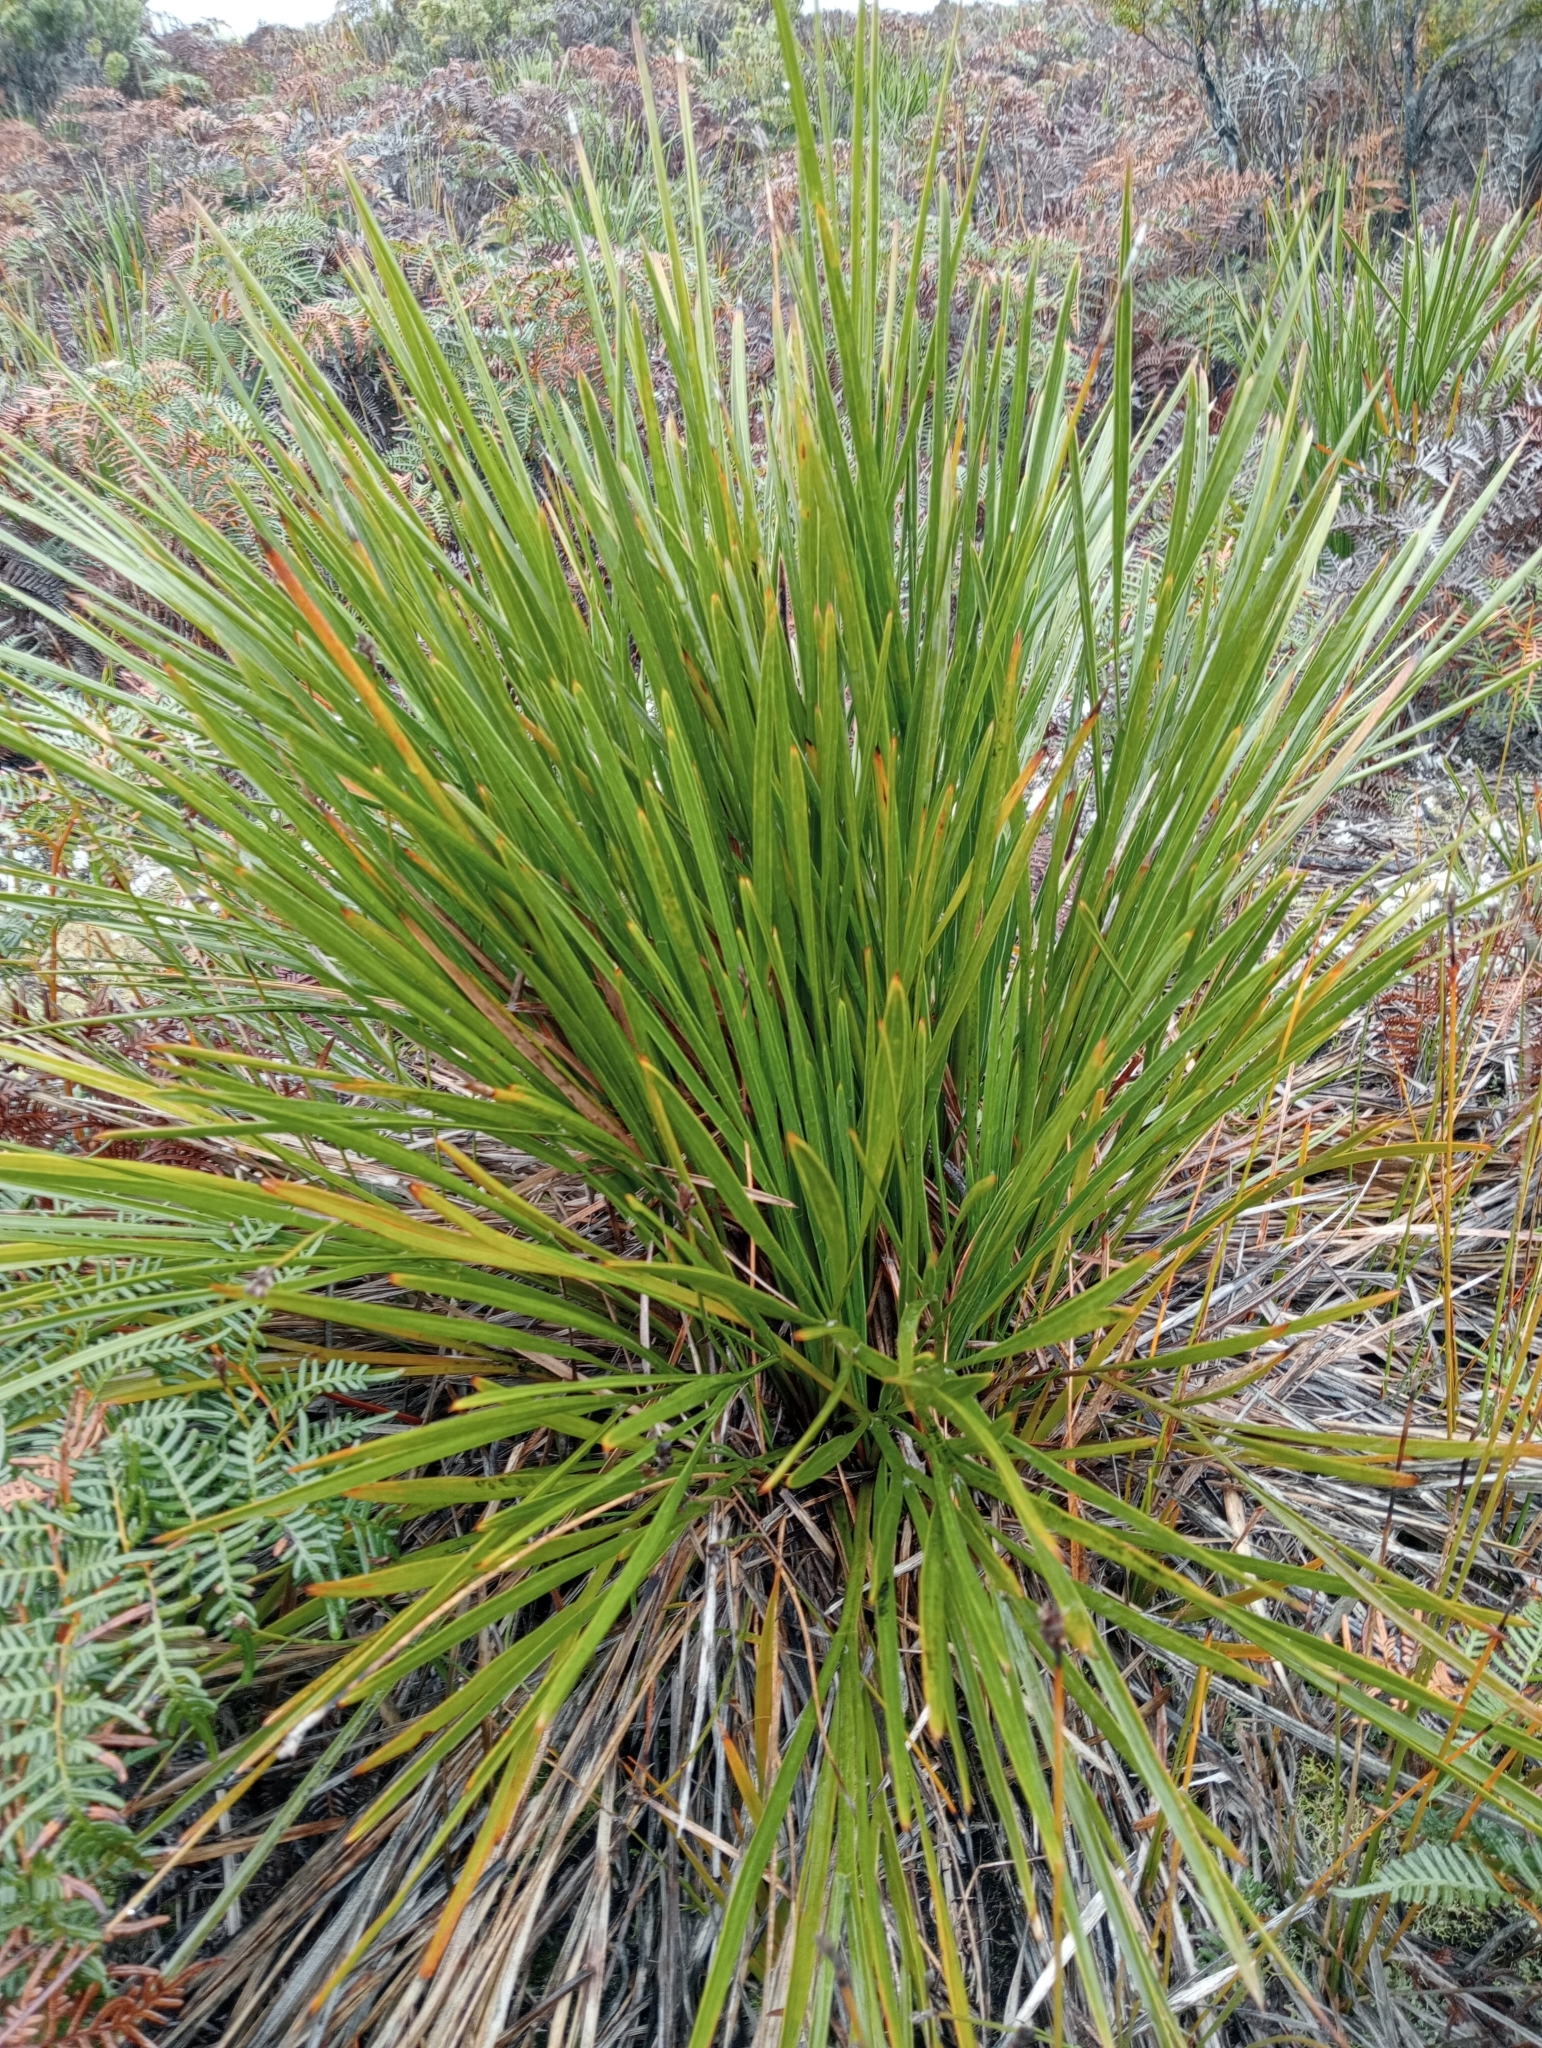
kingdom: Plantae
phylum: Tracheophyta
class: Magnoliopsida
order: Apiales
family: Apiaceae
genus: Aciphylla
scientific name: Aciphylla traversii
